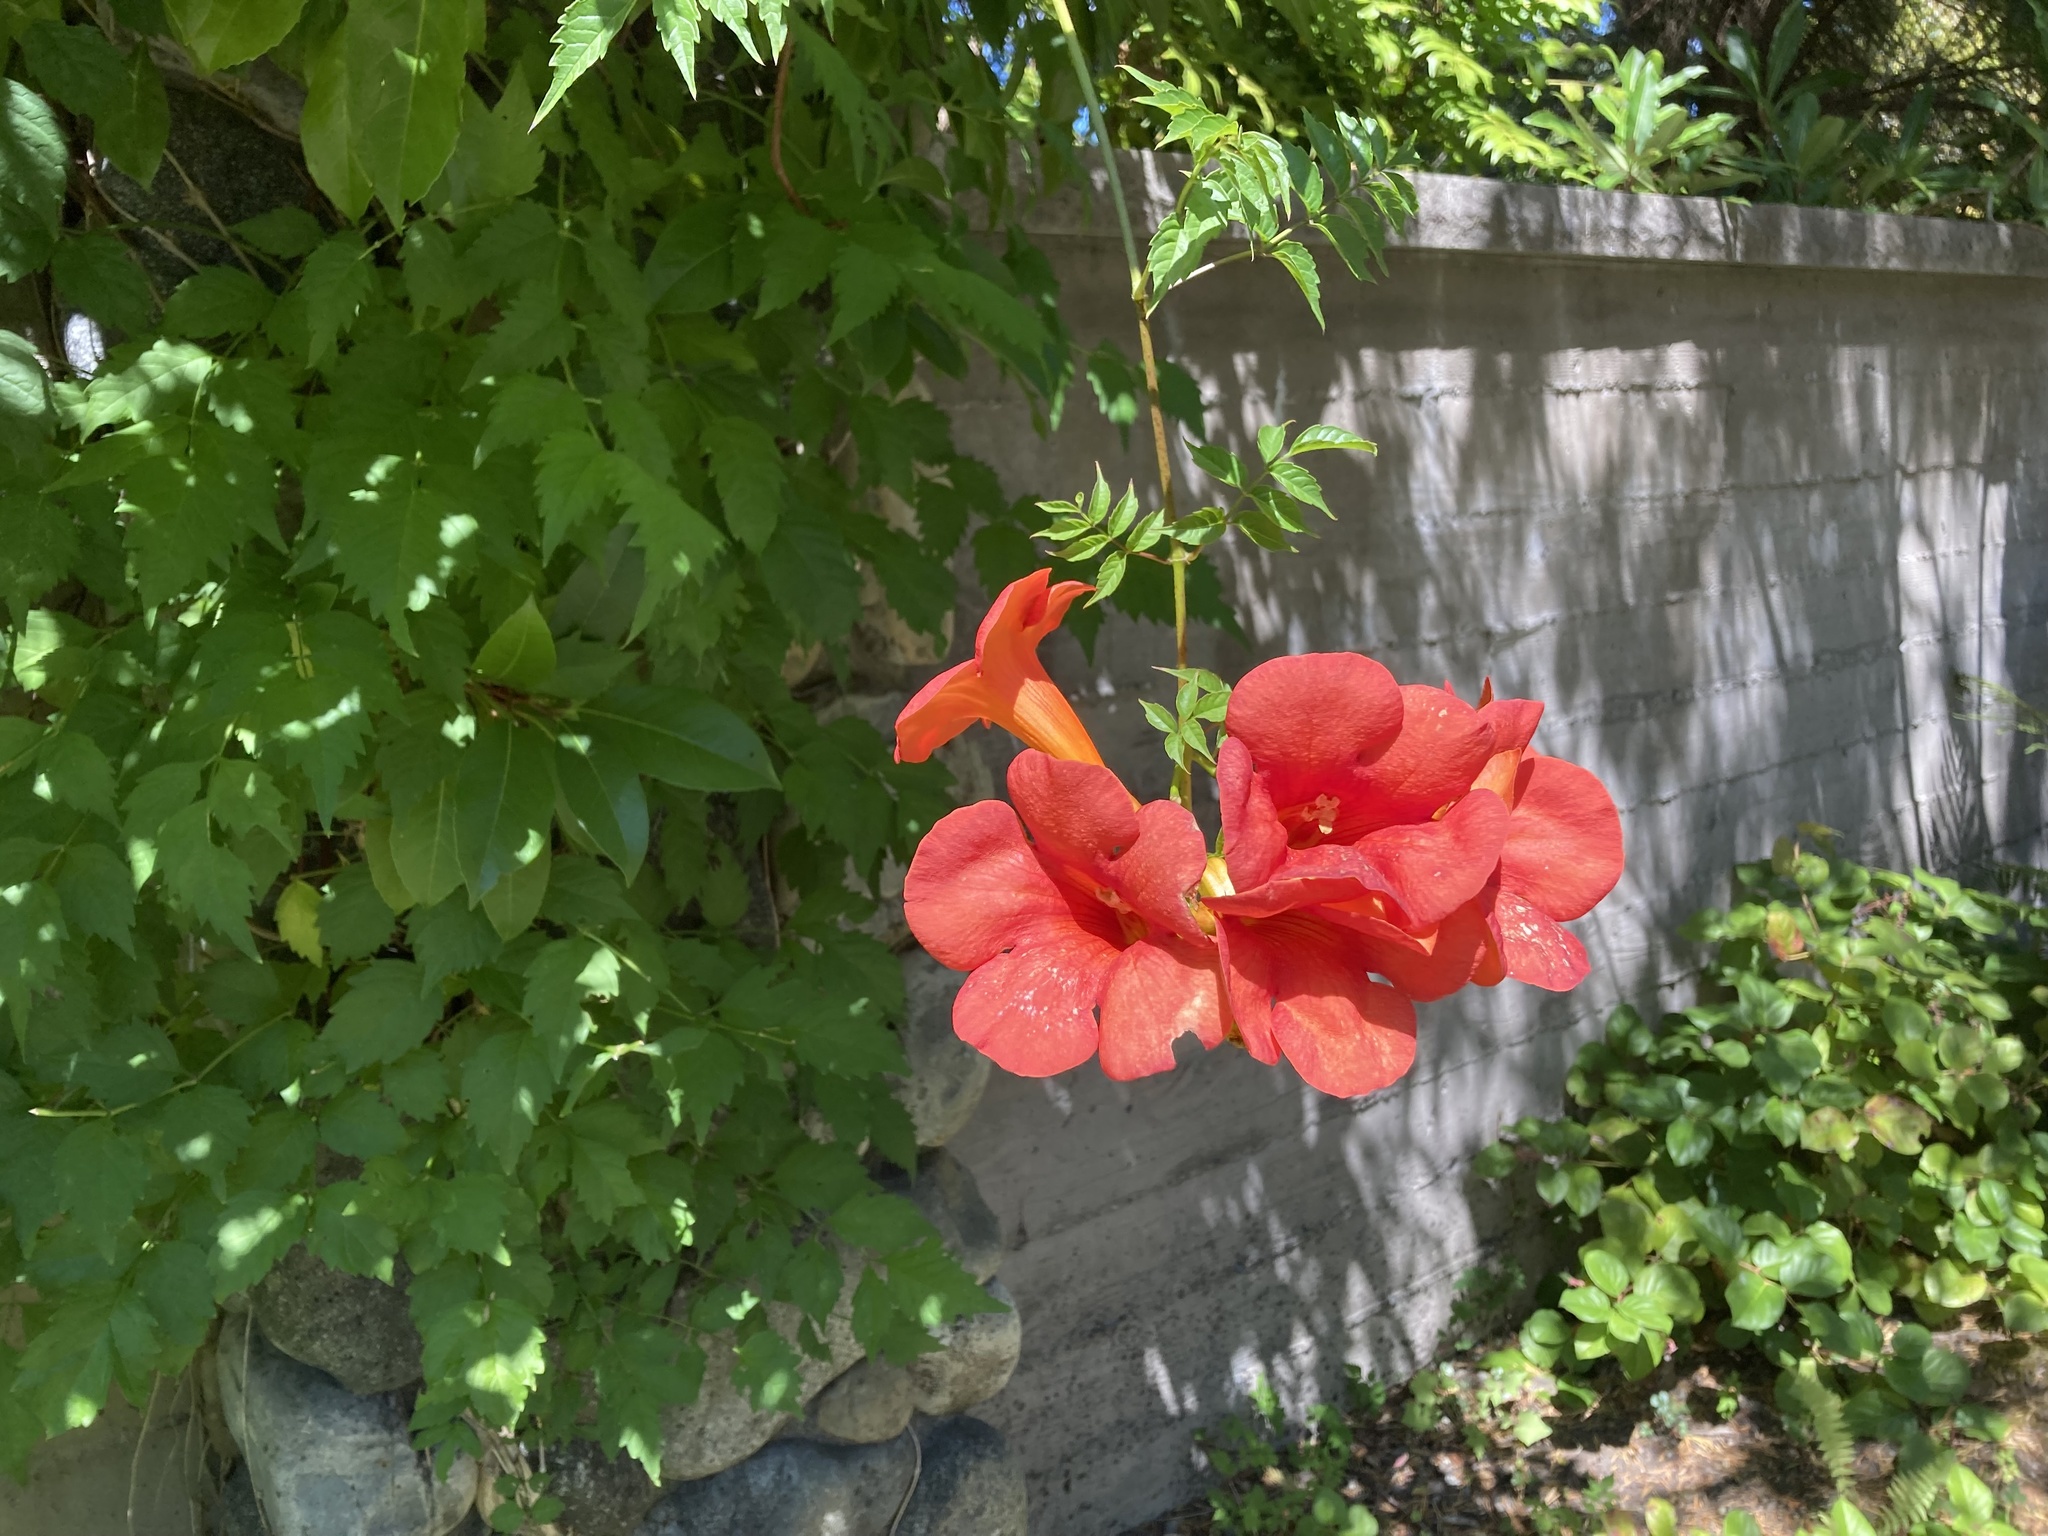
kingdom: Plantae
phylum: Tracheophyta
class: Magnoliopsida
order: Lamiales
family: Bignoniaceae
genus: Campsis
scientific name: Campsis radicans
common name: Trumpet-creeper
